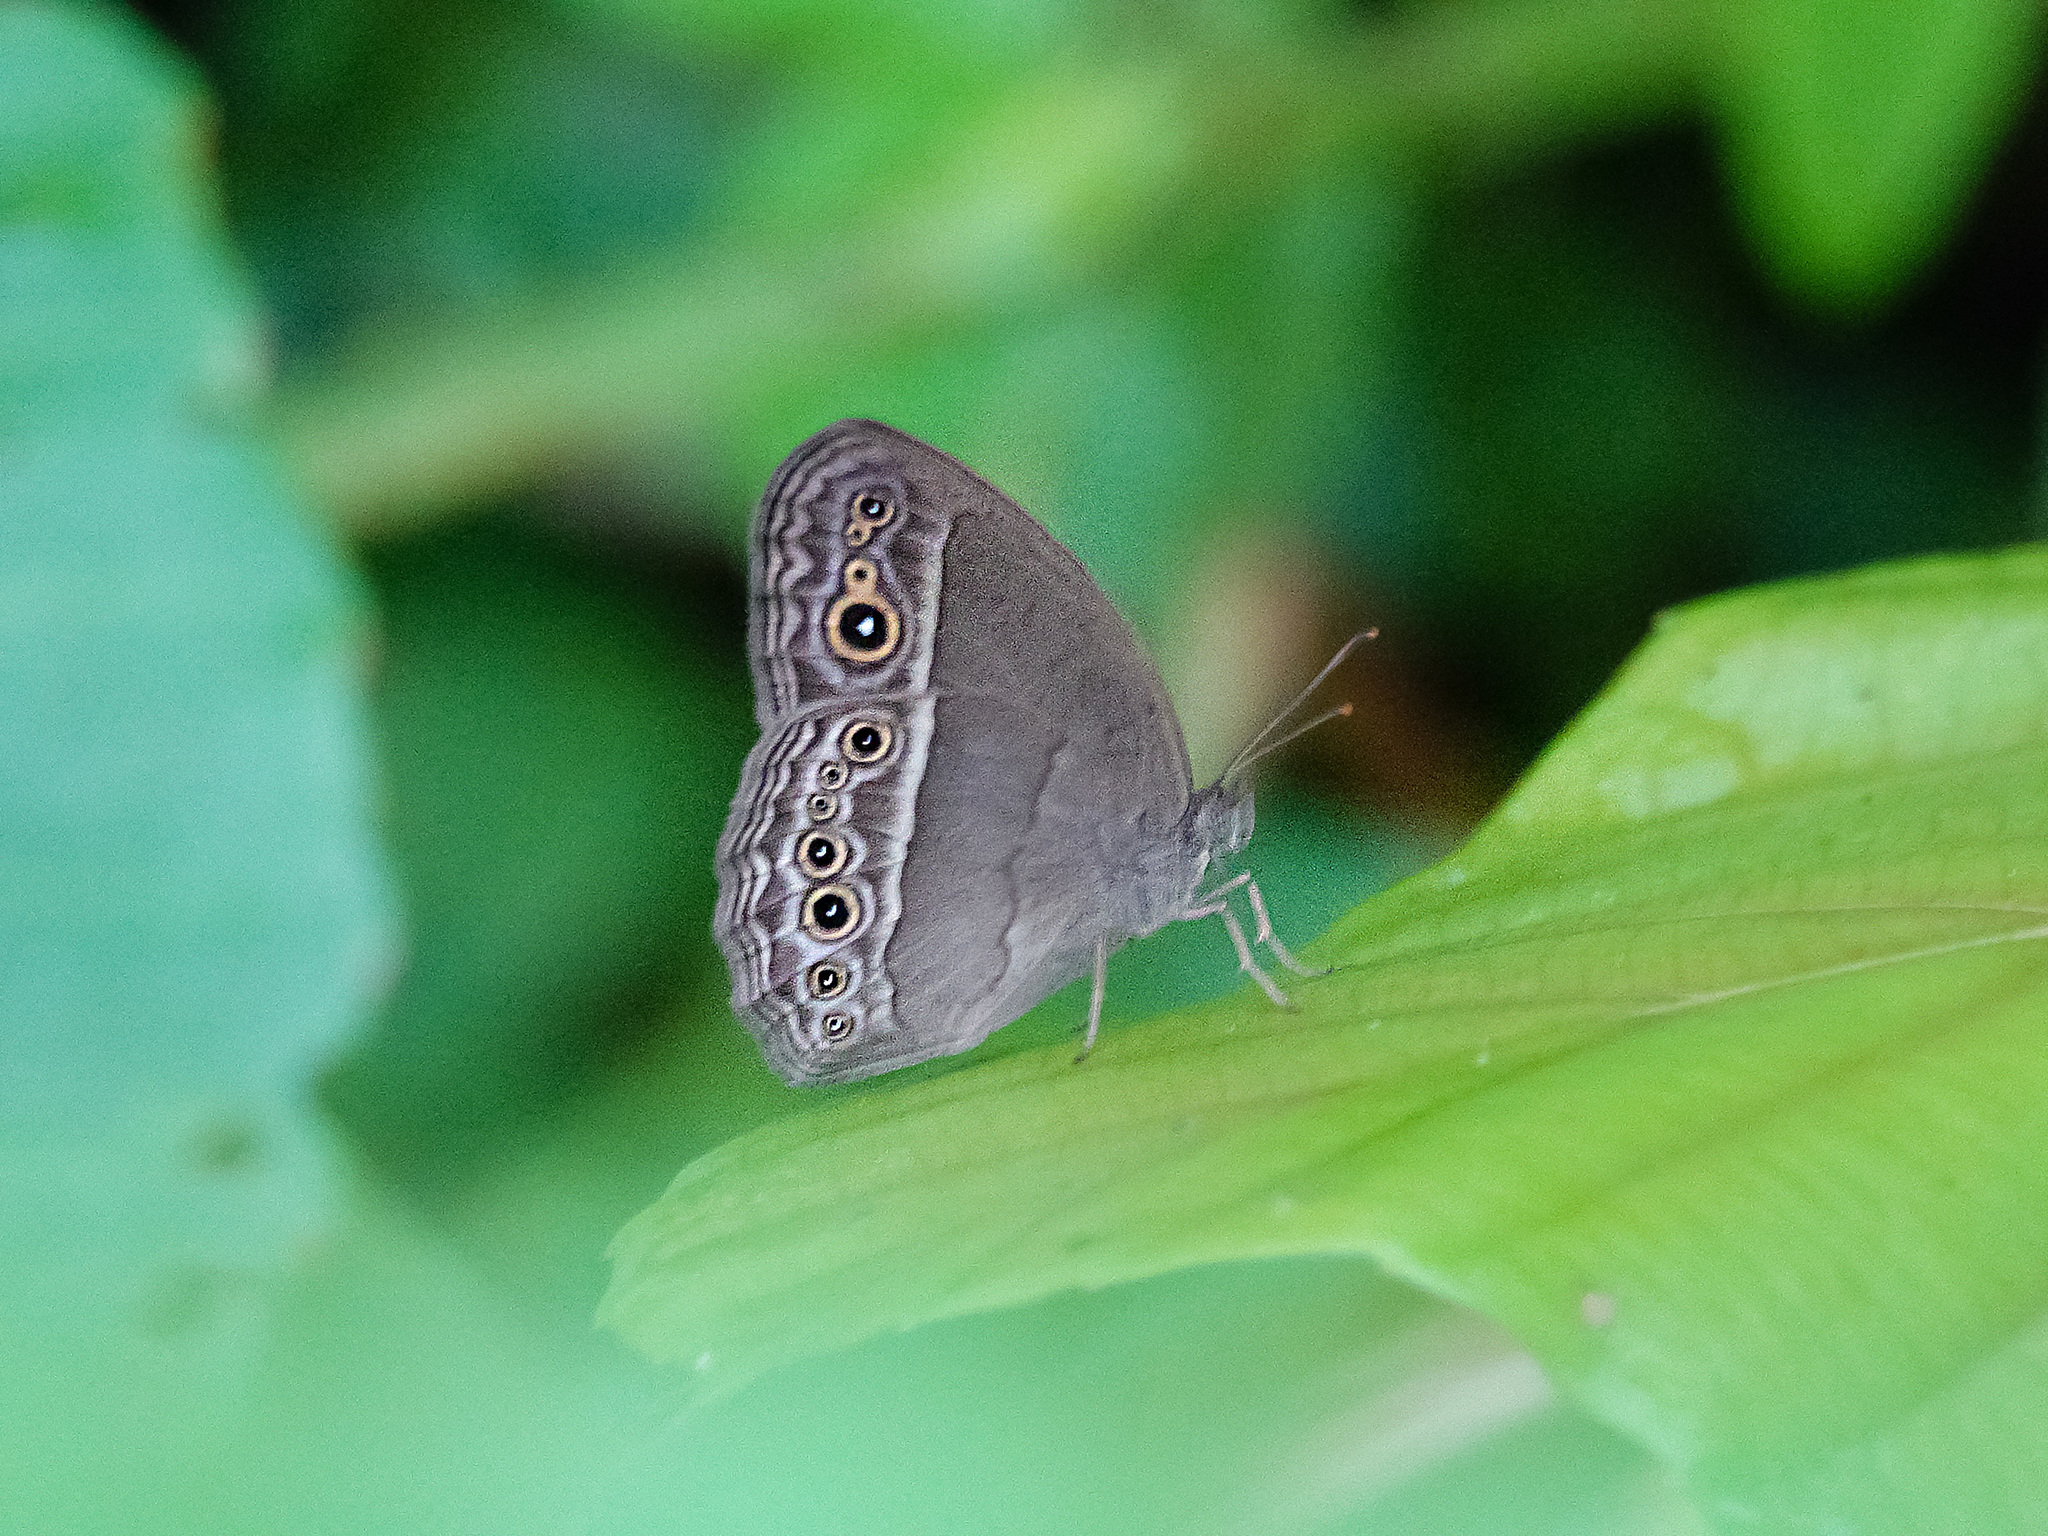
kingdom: Animalia
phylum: Arthropoda
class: Insecta
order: Lepidoptera
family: Nymphalidae
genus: Mycalesis
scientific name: Mycalesis perseoides
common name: Burmese bushbrown
